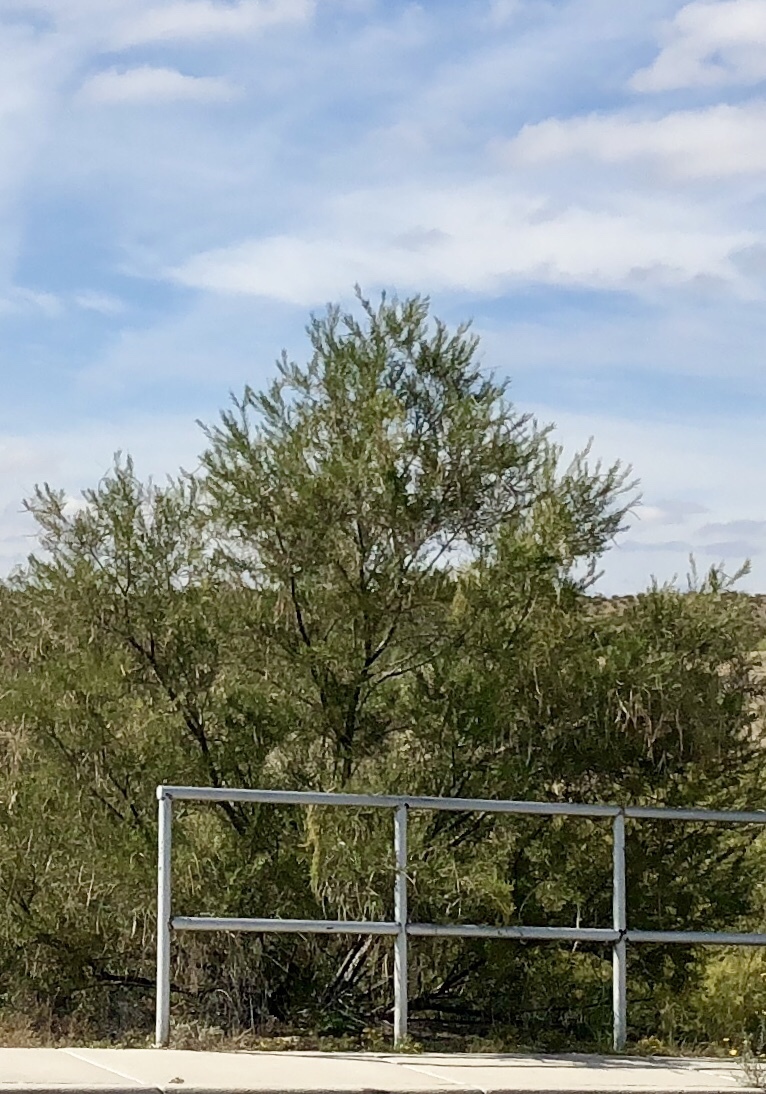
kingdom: Plantae
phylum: Tracheophyta
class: Magnoliopsida
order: Lamiales
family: Bignoniaceae
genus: Chilopsis
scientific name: Chilopsis linearis
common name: Desert-willow
